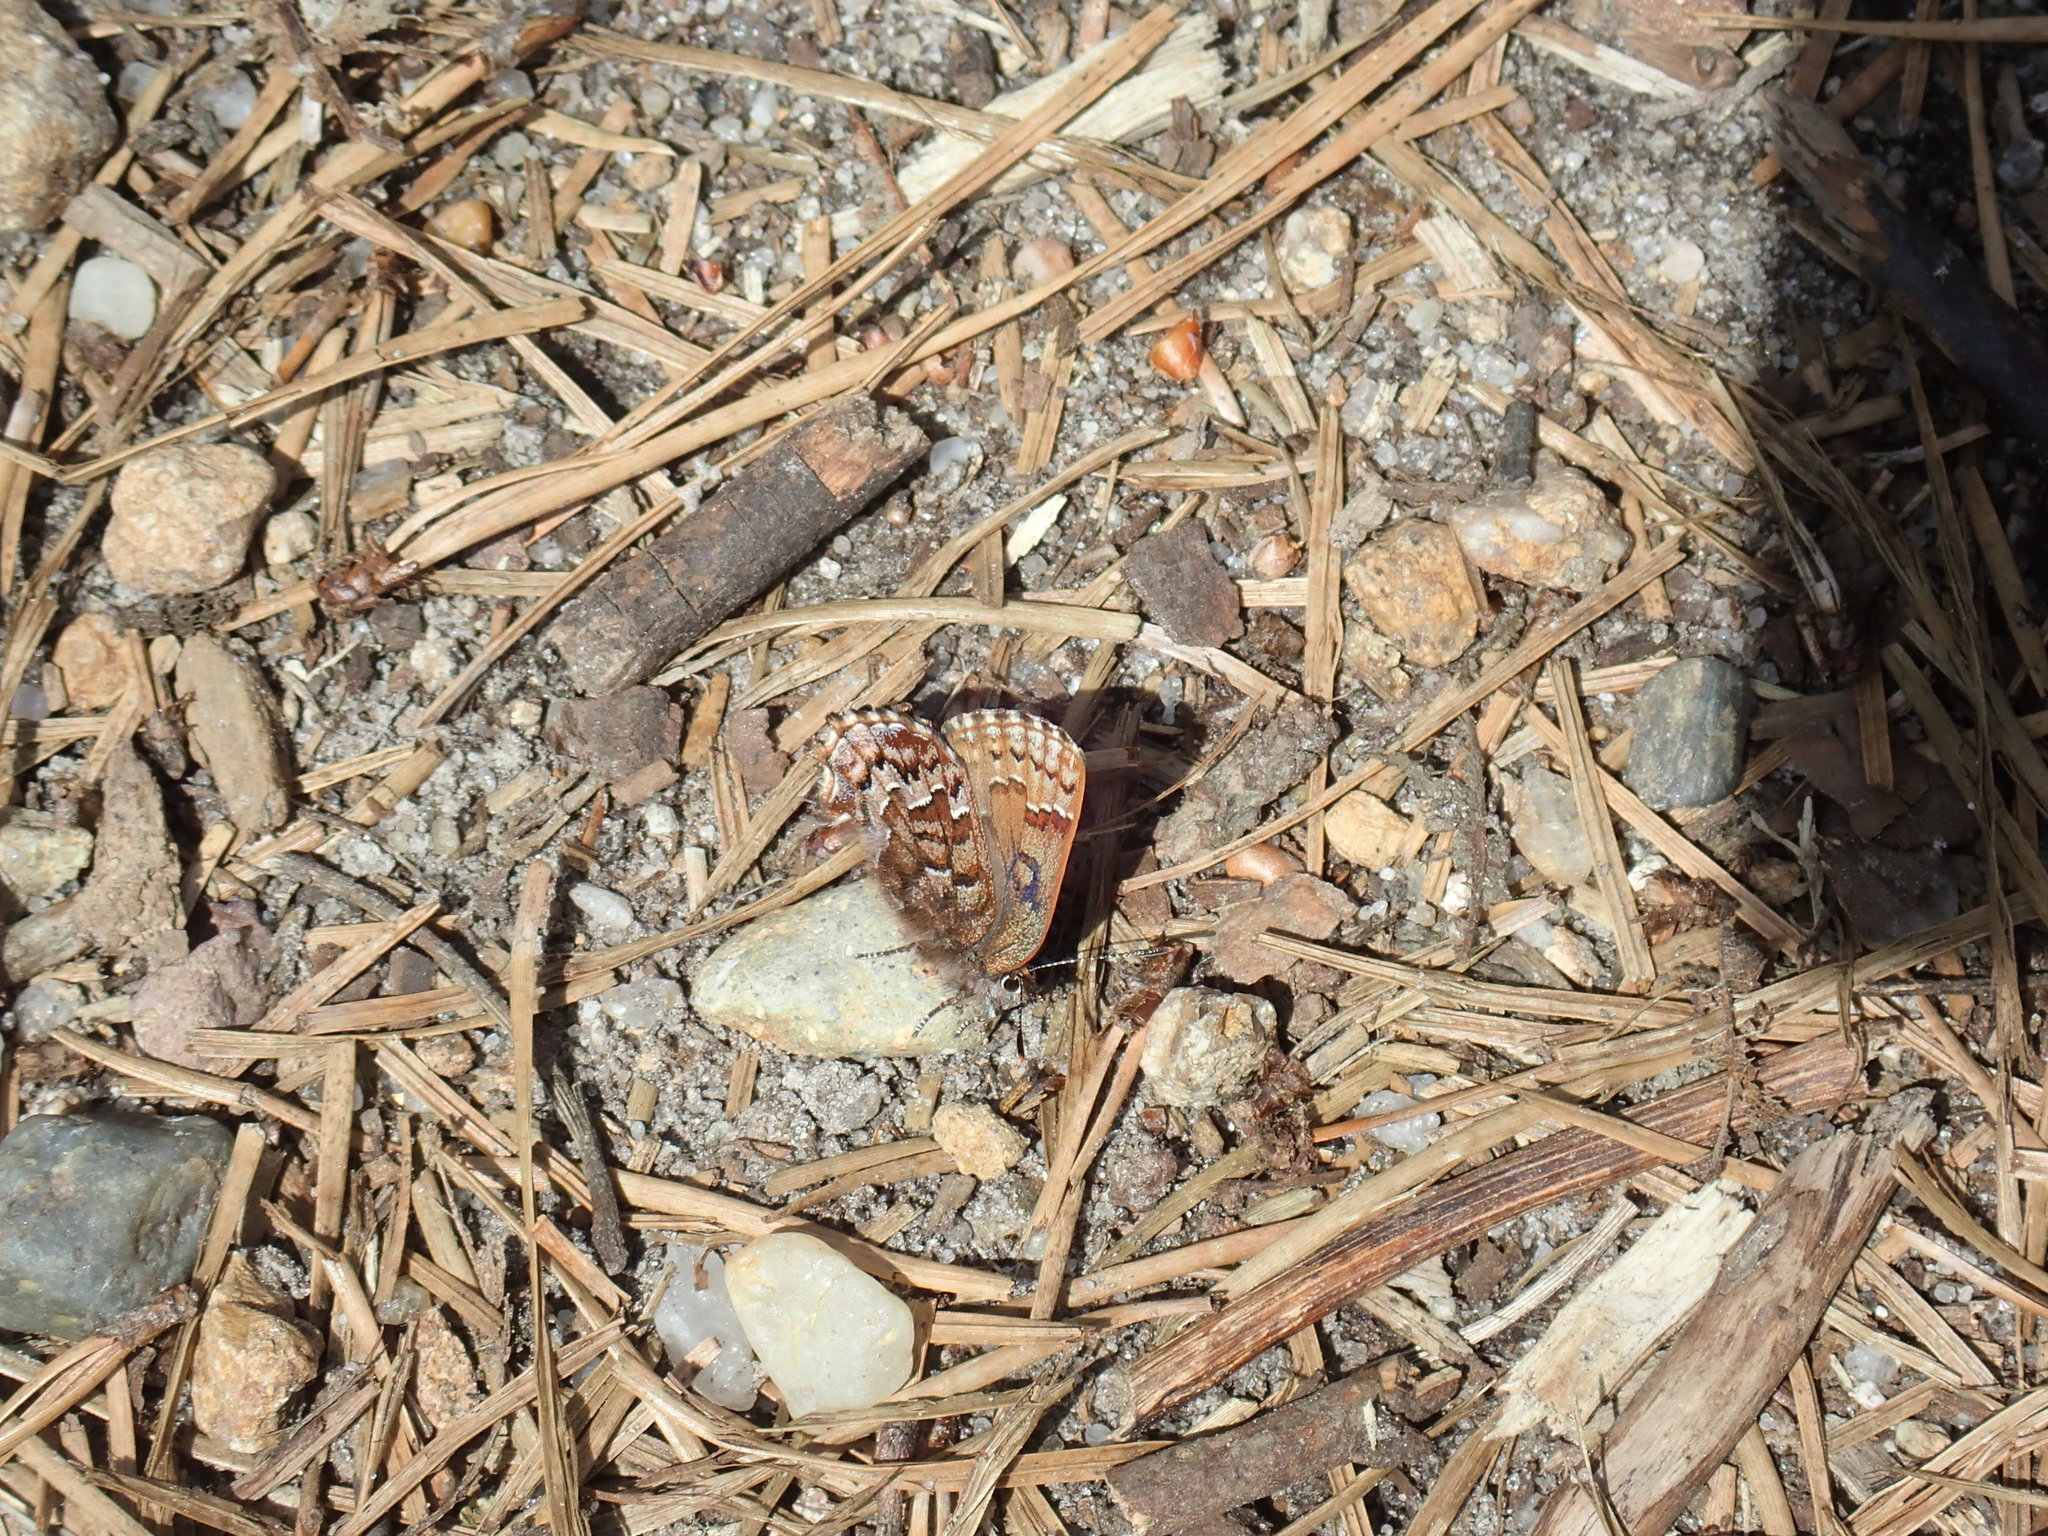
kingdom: Animalia
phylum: Arthropoda
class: Insecta
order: Lepidoptera
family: Lycaenidae
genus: Incisalia
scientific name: Incisalia niphon
